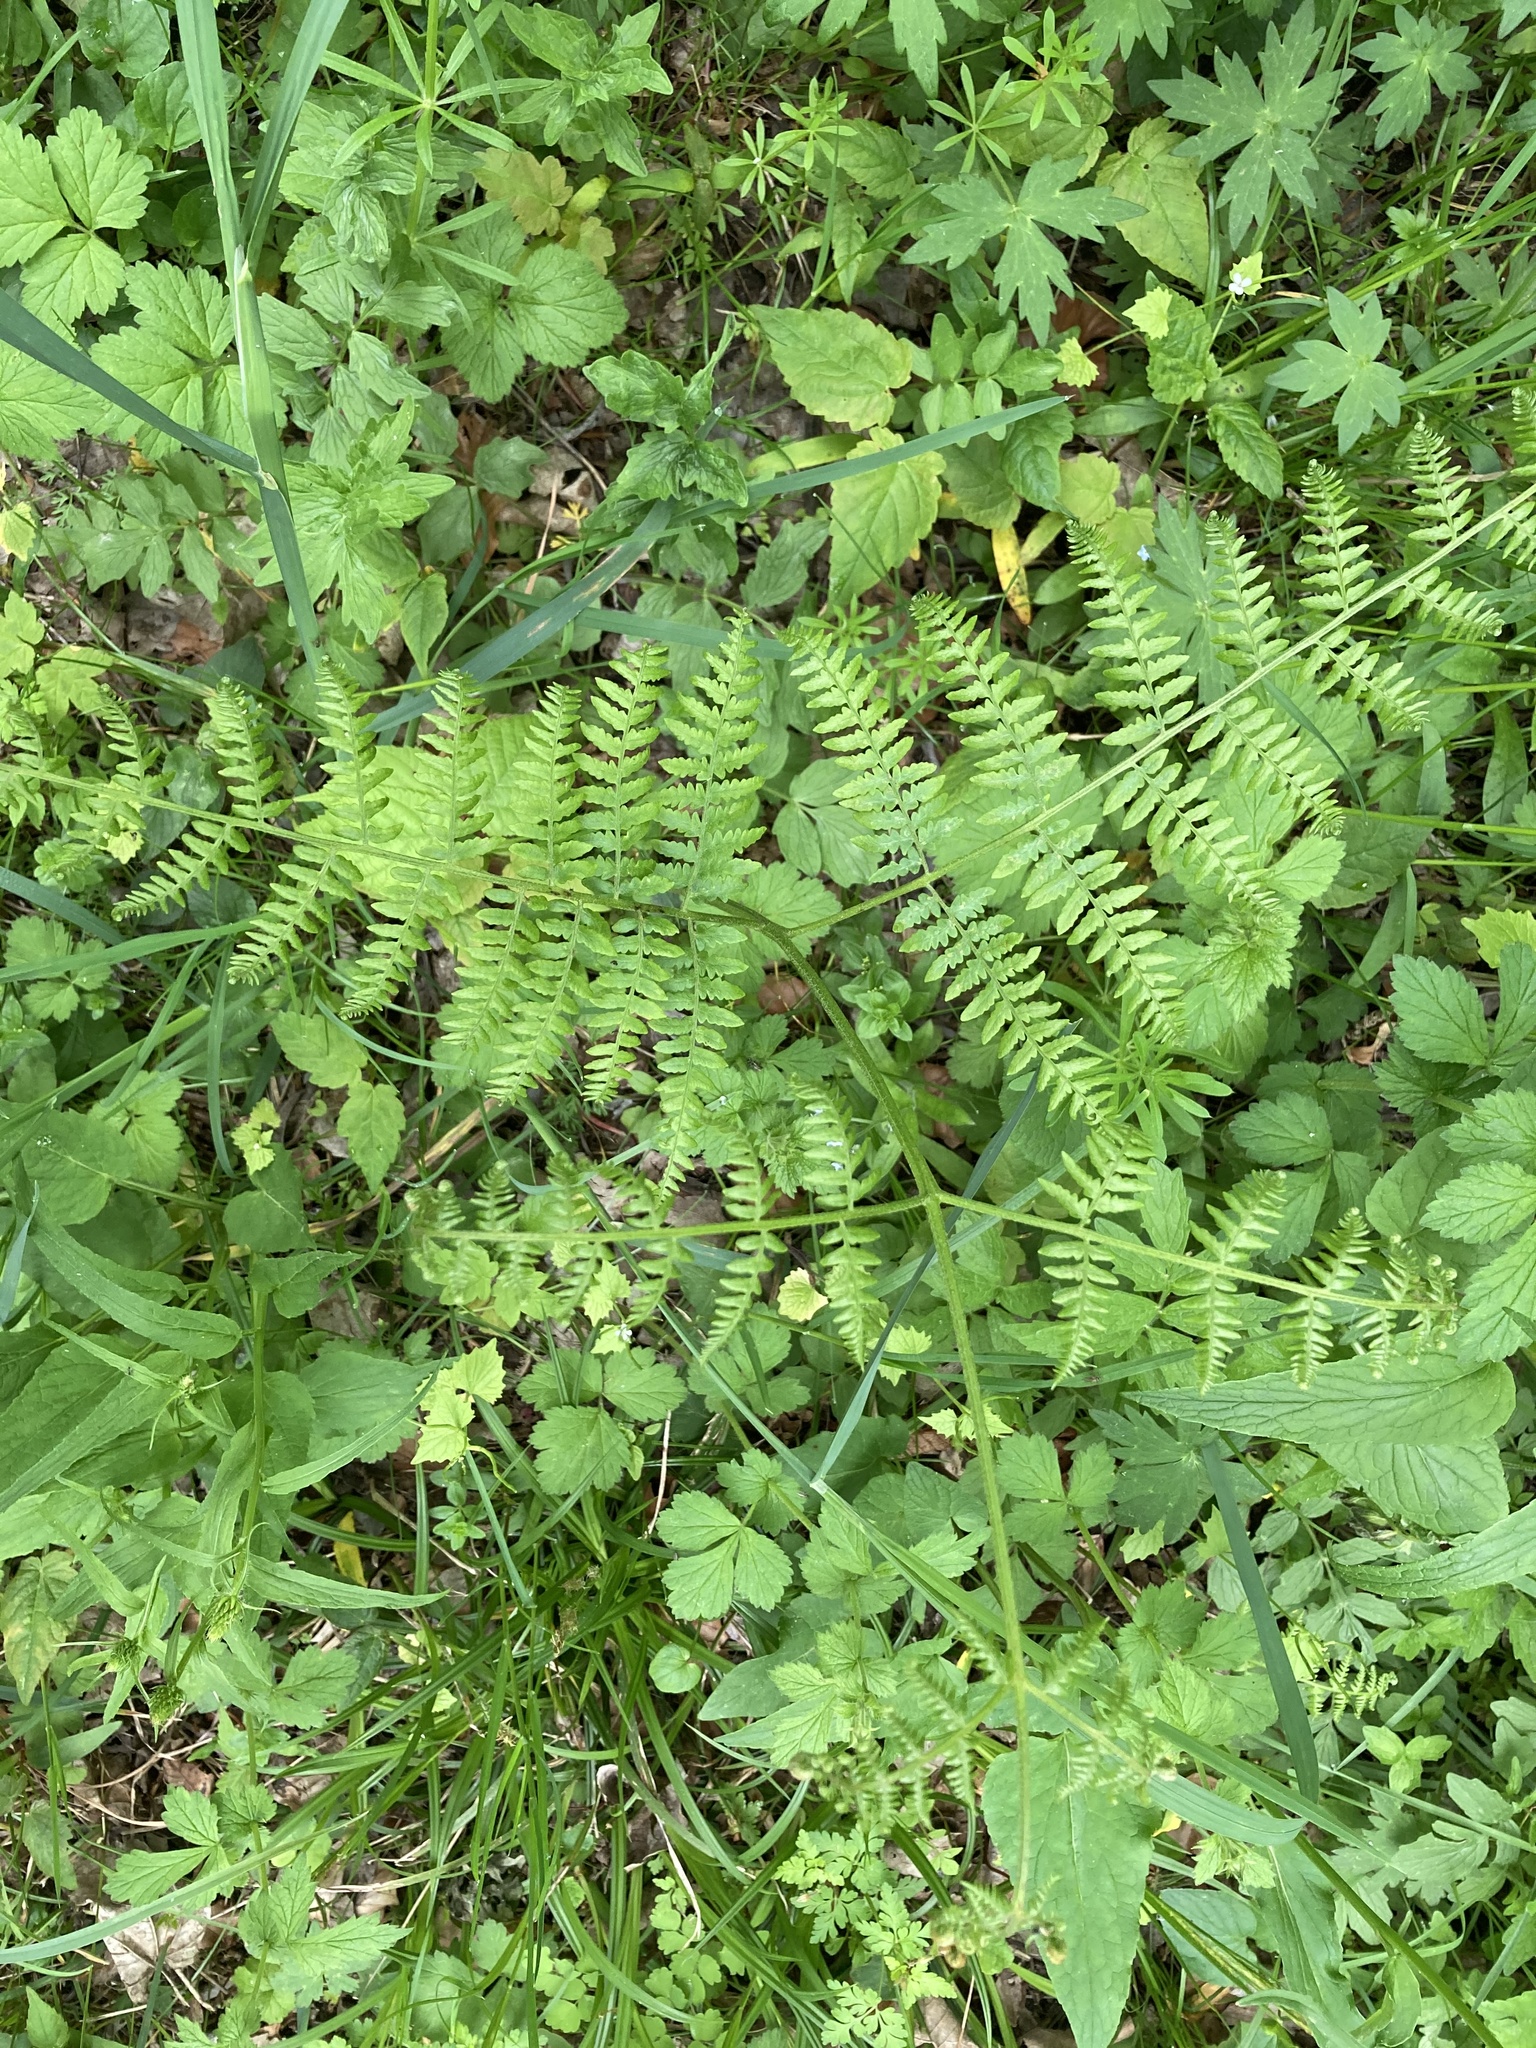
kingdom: Plantae
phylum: Tracheophyta
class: Polypodiopsida
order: Polypodiales
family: Dennstaedtiaceae
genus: Pteridium
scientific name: Pteridium aquilinum
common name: Bracken
